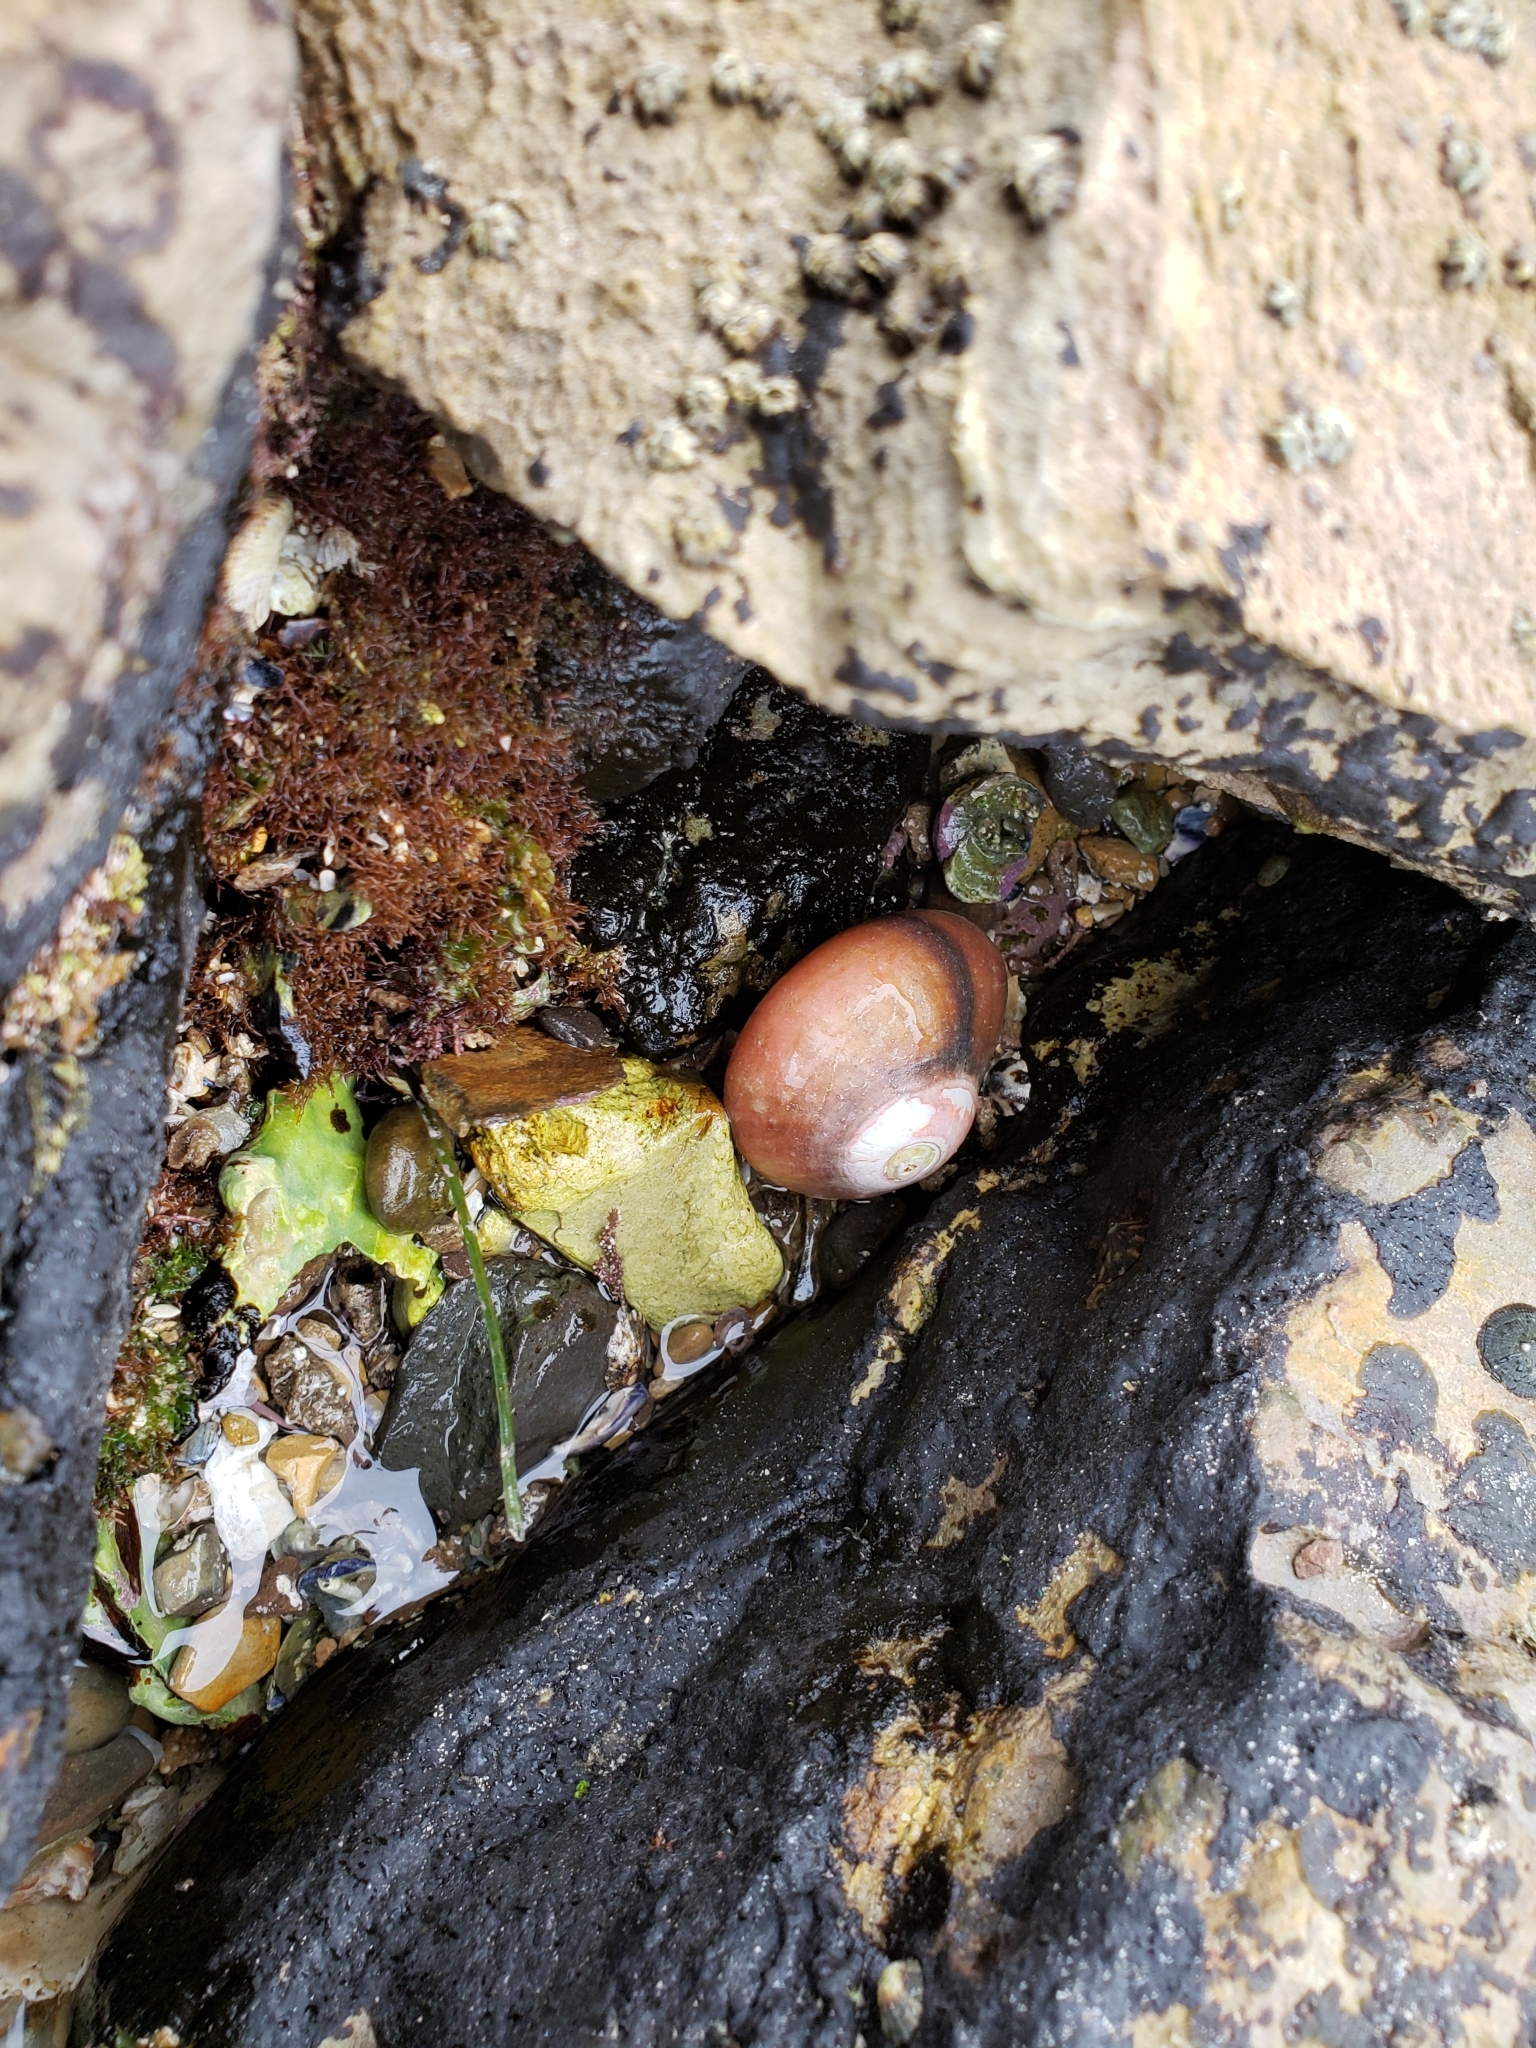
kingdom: Animalia
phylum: Mollusca
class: Gastropoda
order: Trochida
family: Tegulidae
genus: Norrisia
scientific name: Norrisia norrisii
